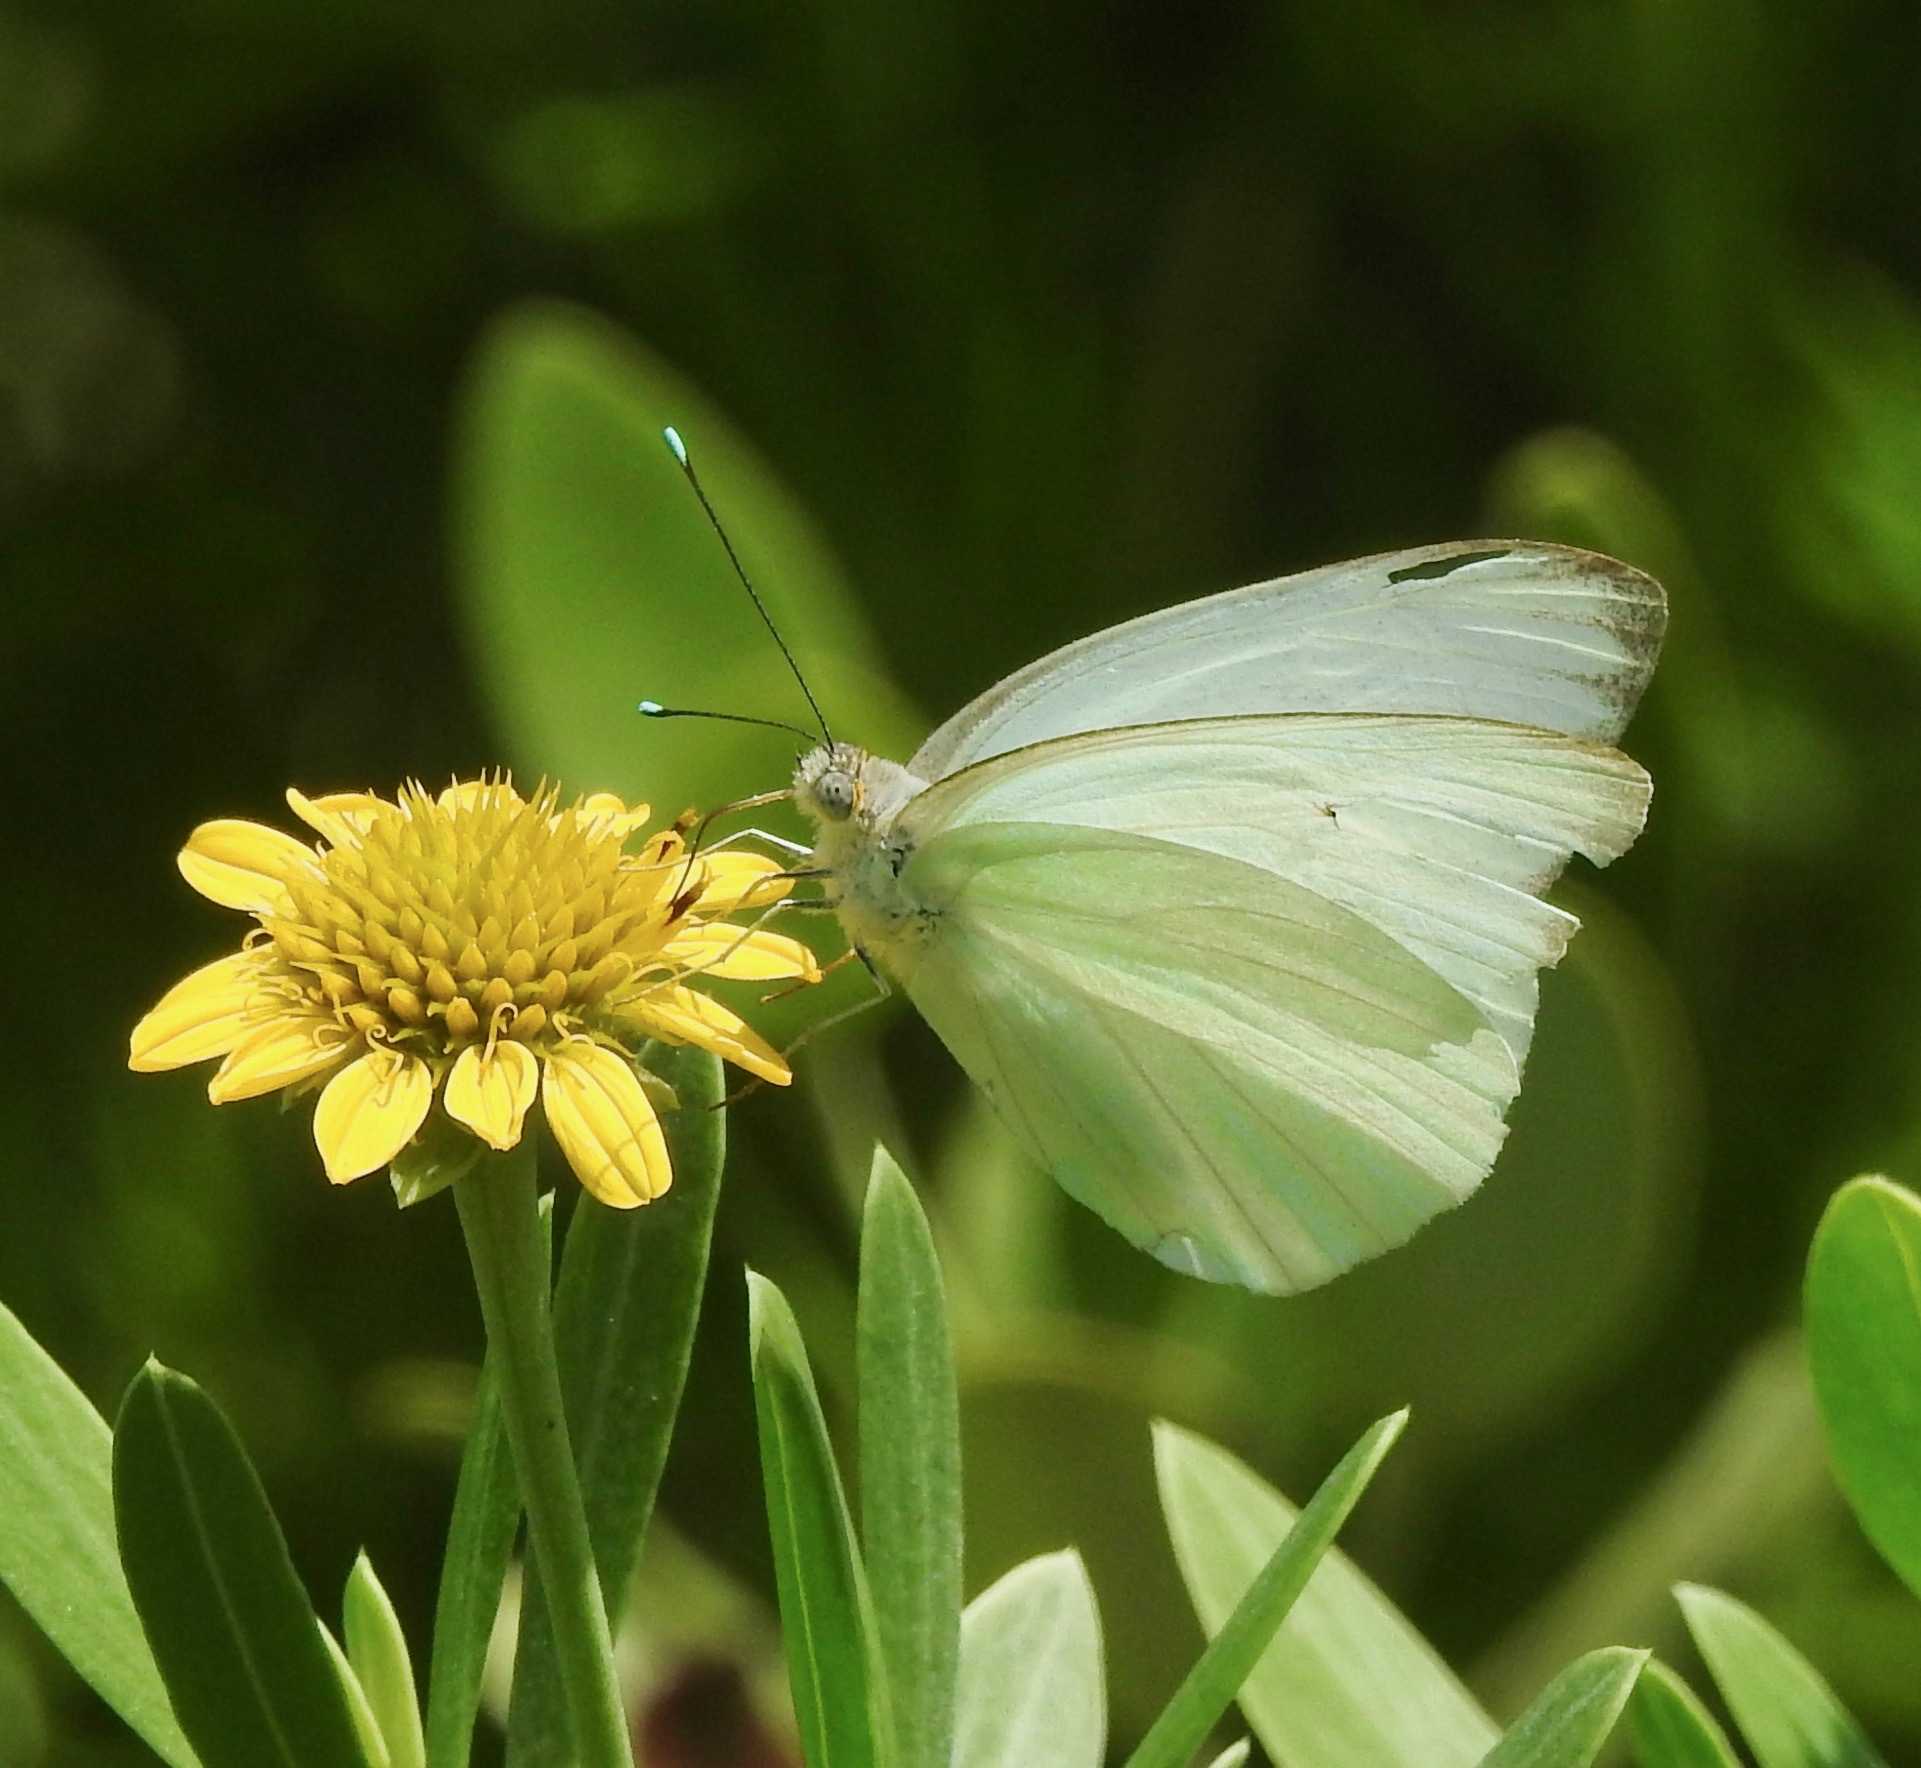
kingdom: Animalia
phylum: Arthropoda
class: Insecta
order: Lepidoptera
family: Pieridae
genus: Ascia
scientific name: Ascia monuste
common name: Great southern white
